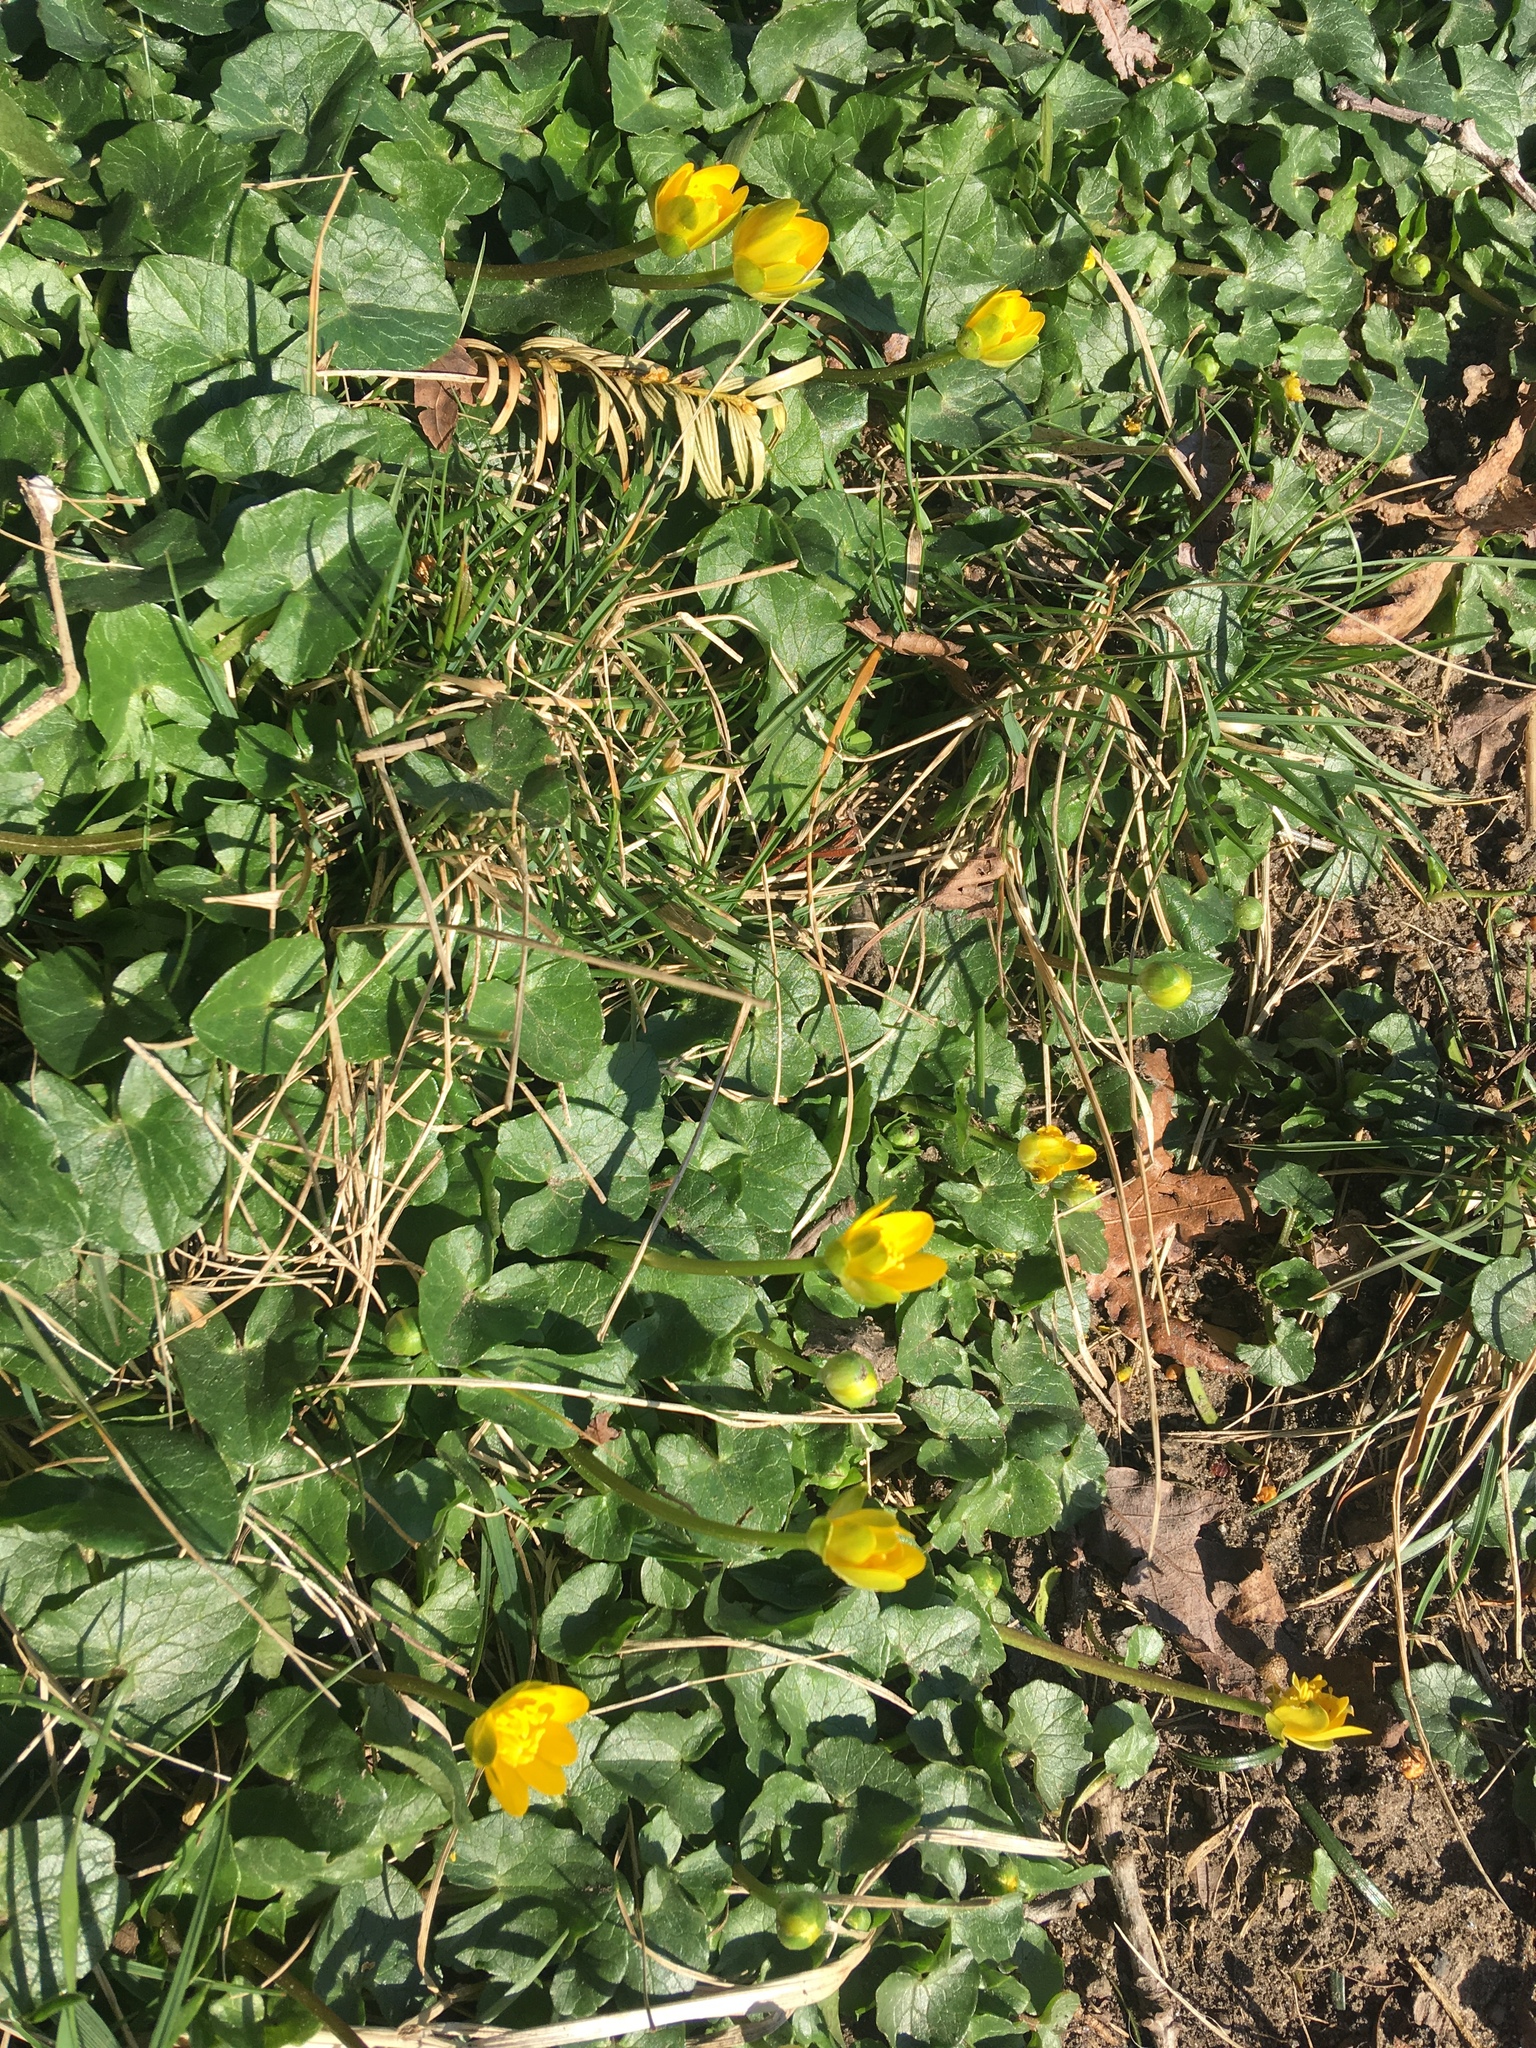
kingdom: Plantae
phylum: Tracheophyta
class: Magnoliopsida
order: Ranunculales
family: Ranunculaceae
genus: Ficaria
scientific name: Ficaria verna
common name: Lesser celandine
